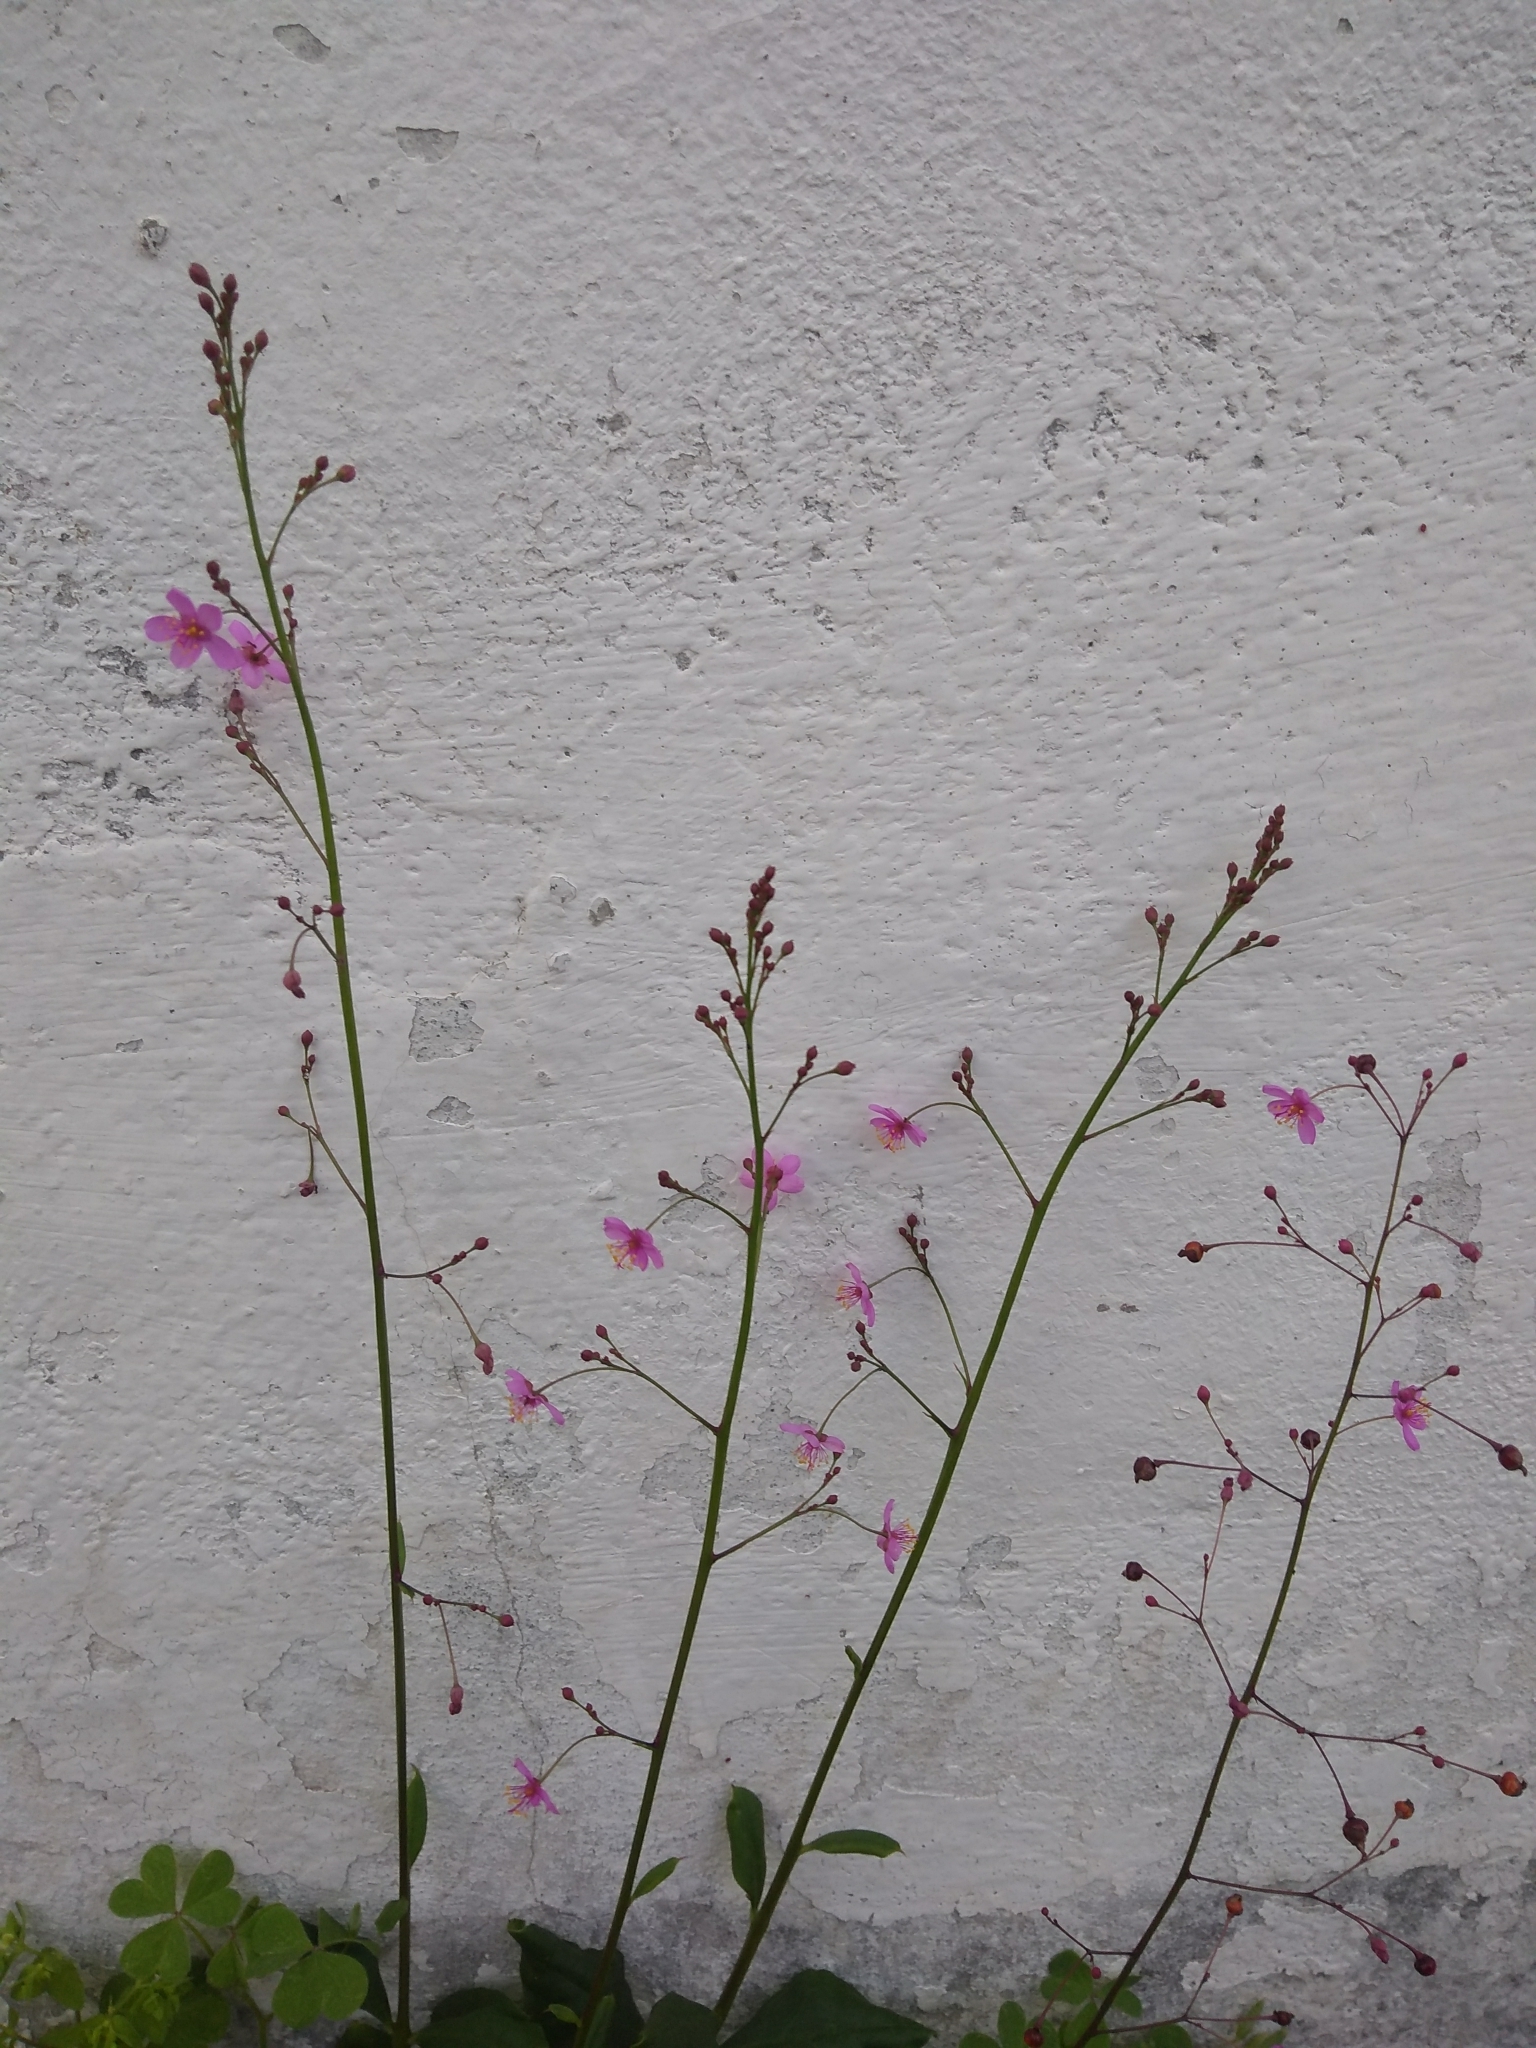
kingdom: Plantae
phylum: Tracheophyta
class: Magnoliopsida
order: Caryophyllales
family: Talinaceae
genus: Talinum
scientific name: Talinum paniculatum
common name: Jewels of opar
